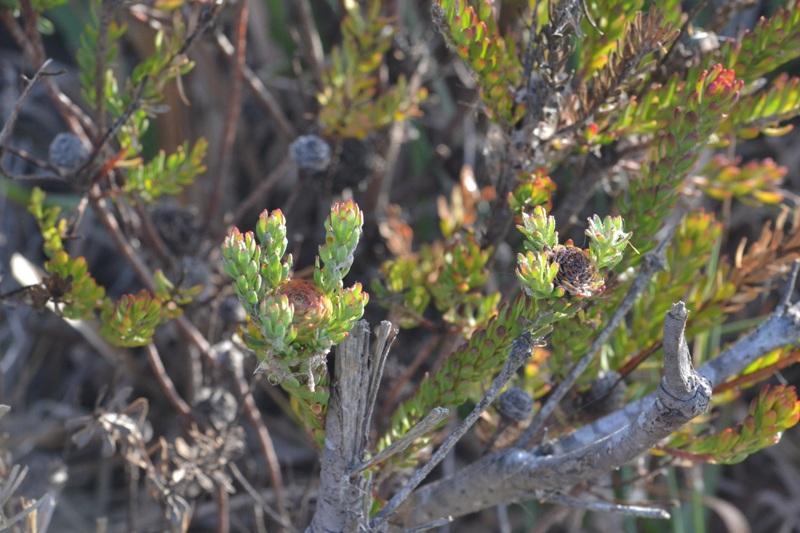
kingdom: Plantae
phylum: Tracheophyta
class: Magnoliopsida
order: Proteales
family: Proteaceae
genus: Leucadendron
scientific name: Leucadendron levisanus
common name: Cape flats conebush
